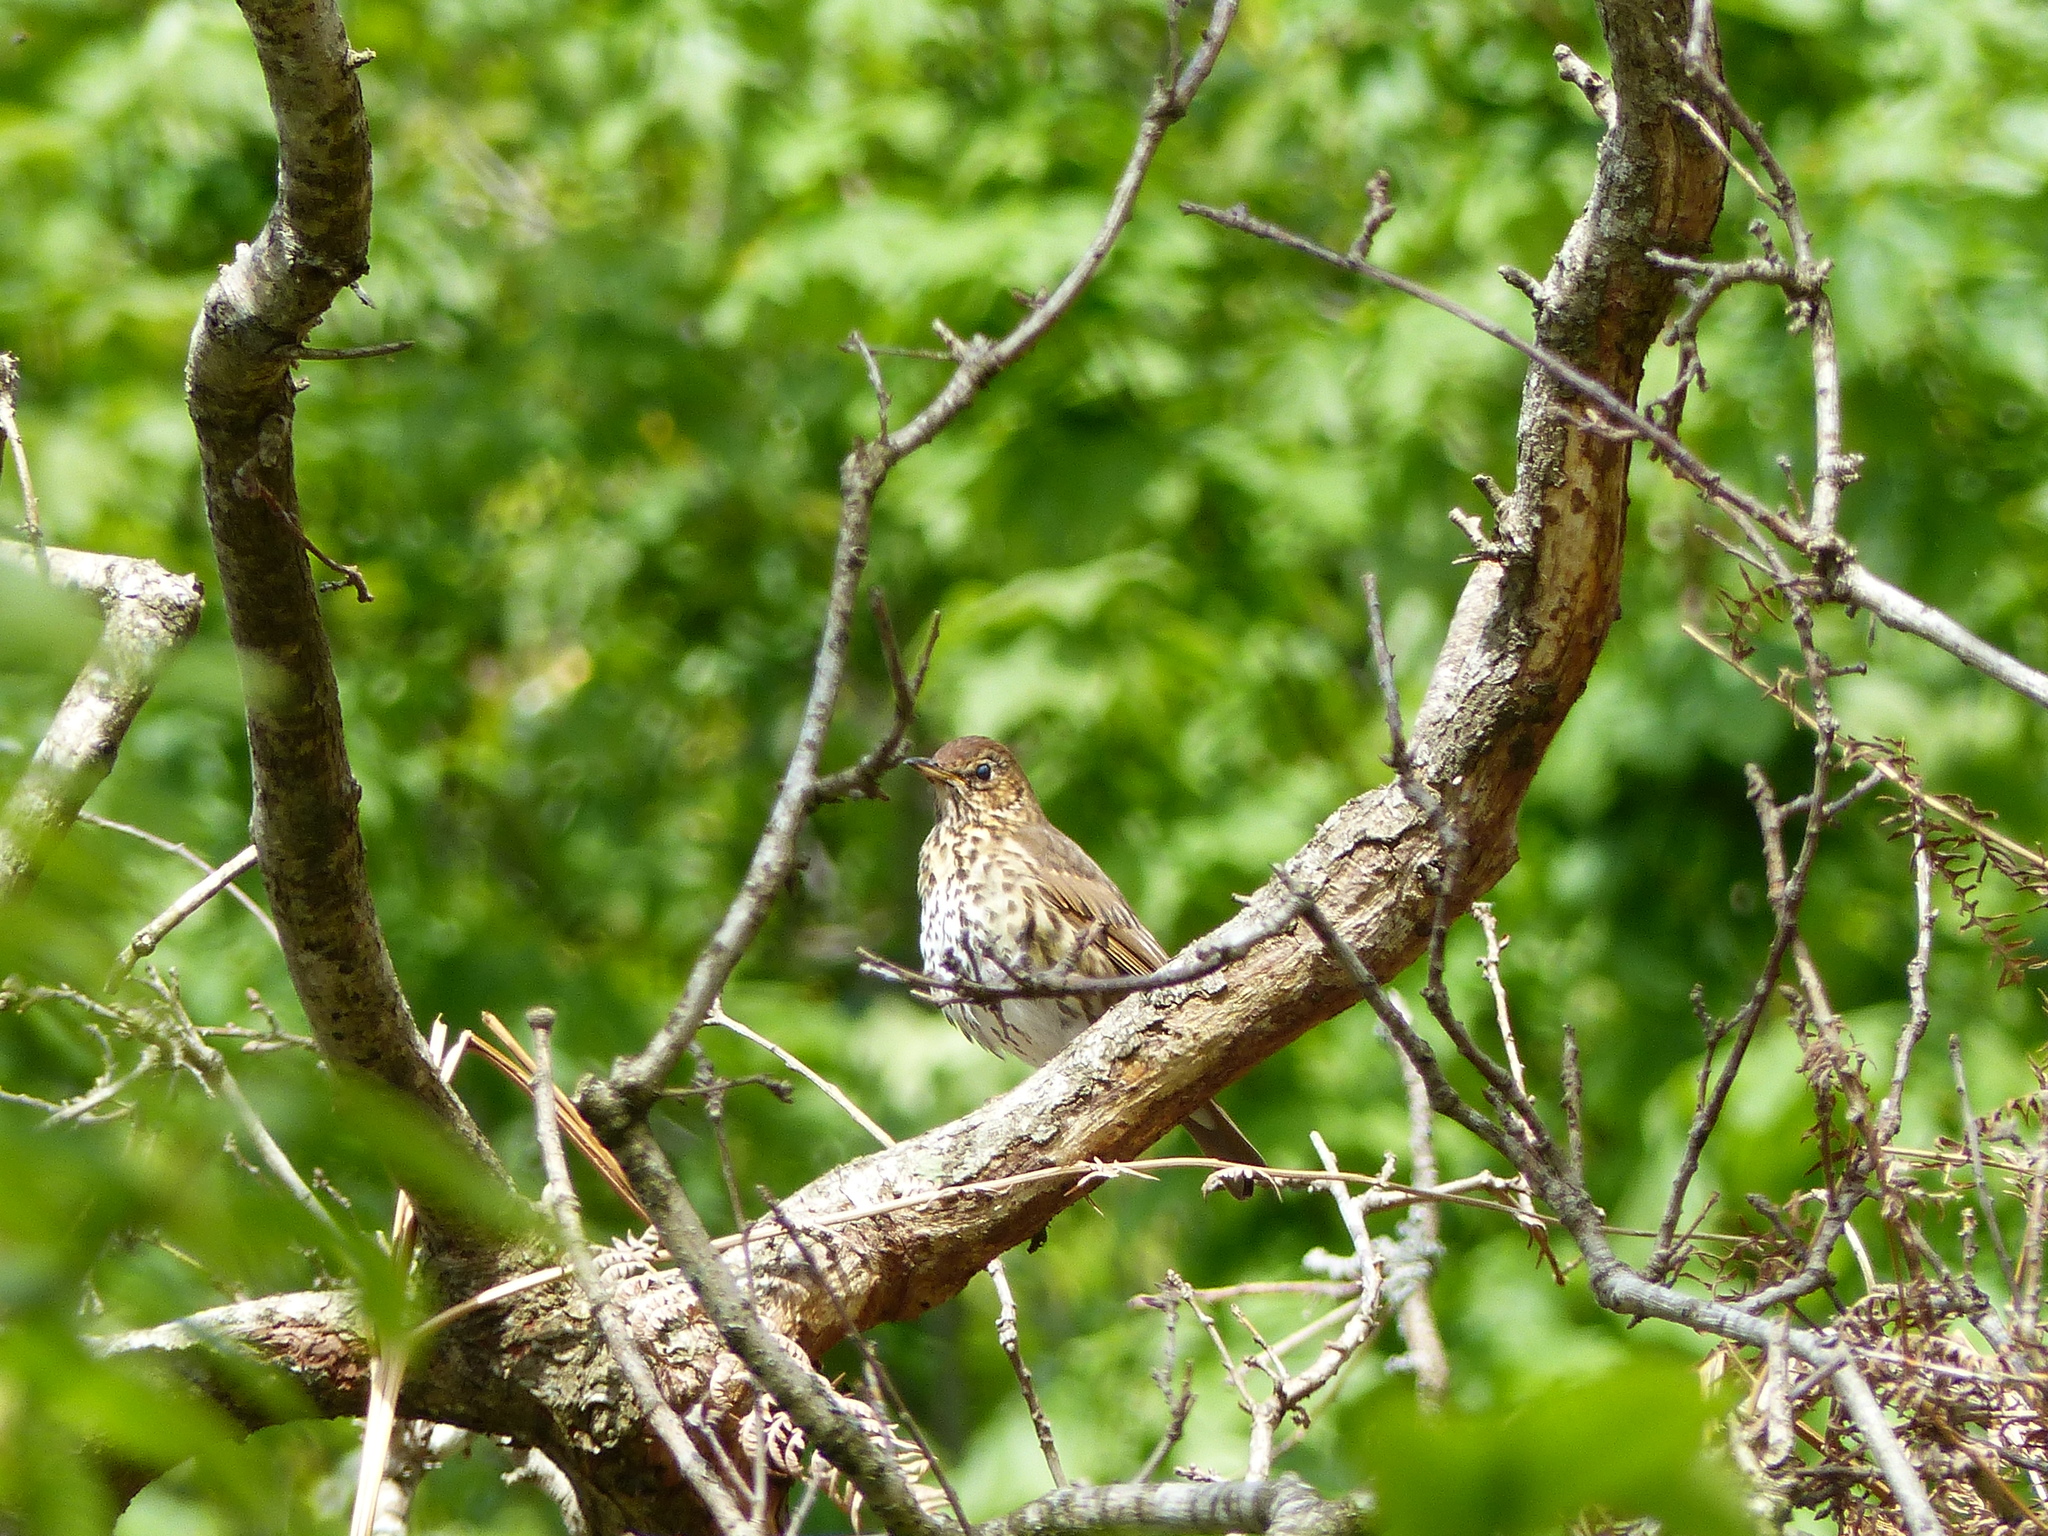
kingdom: Animalia
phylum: Chordata
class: Aves
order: Passeriformes
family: Turdidae
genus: Turdus
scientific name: Turdus philomelos
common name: Song thrush
